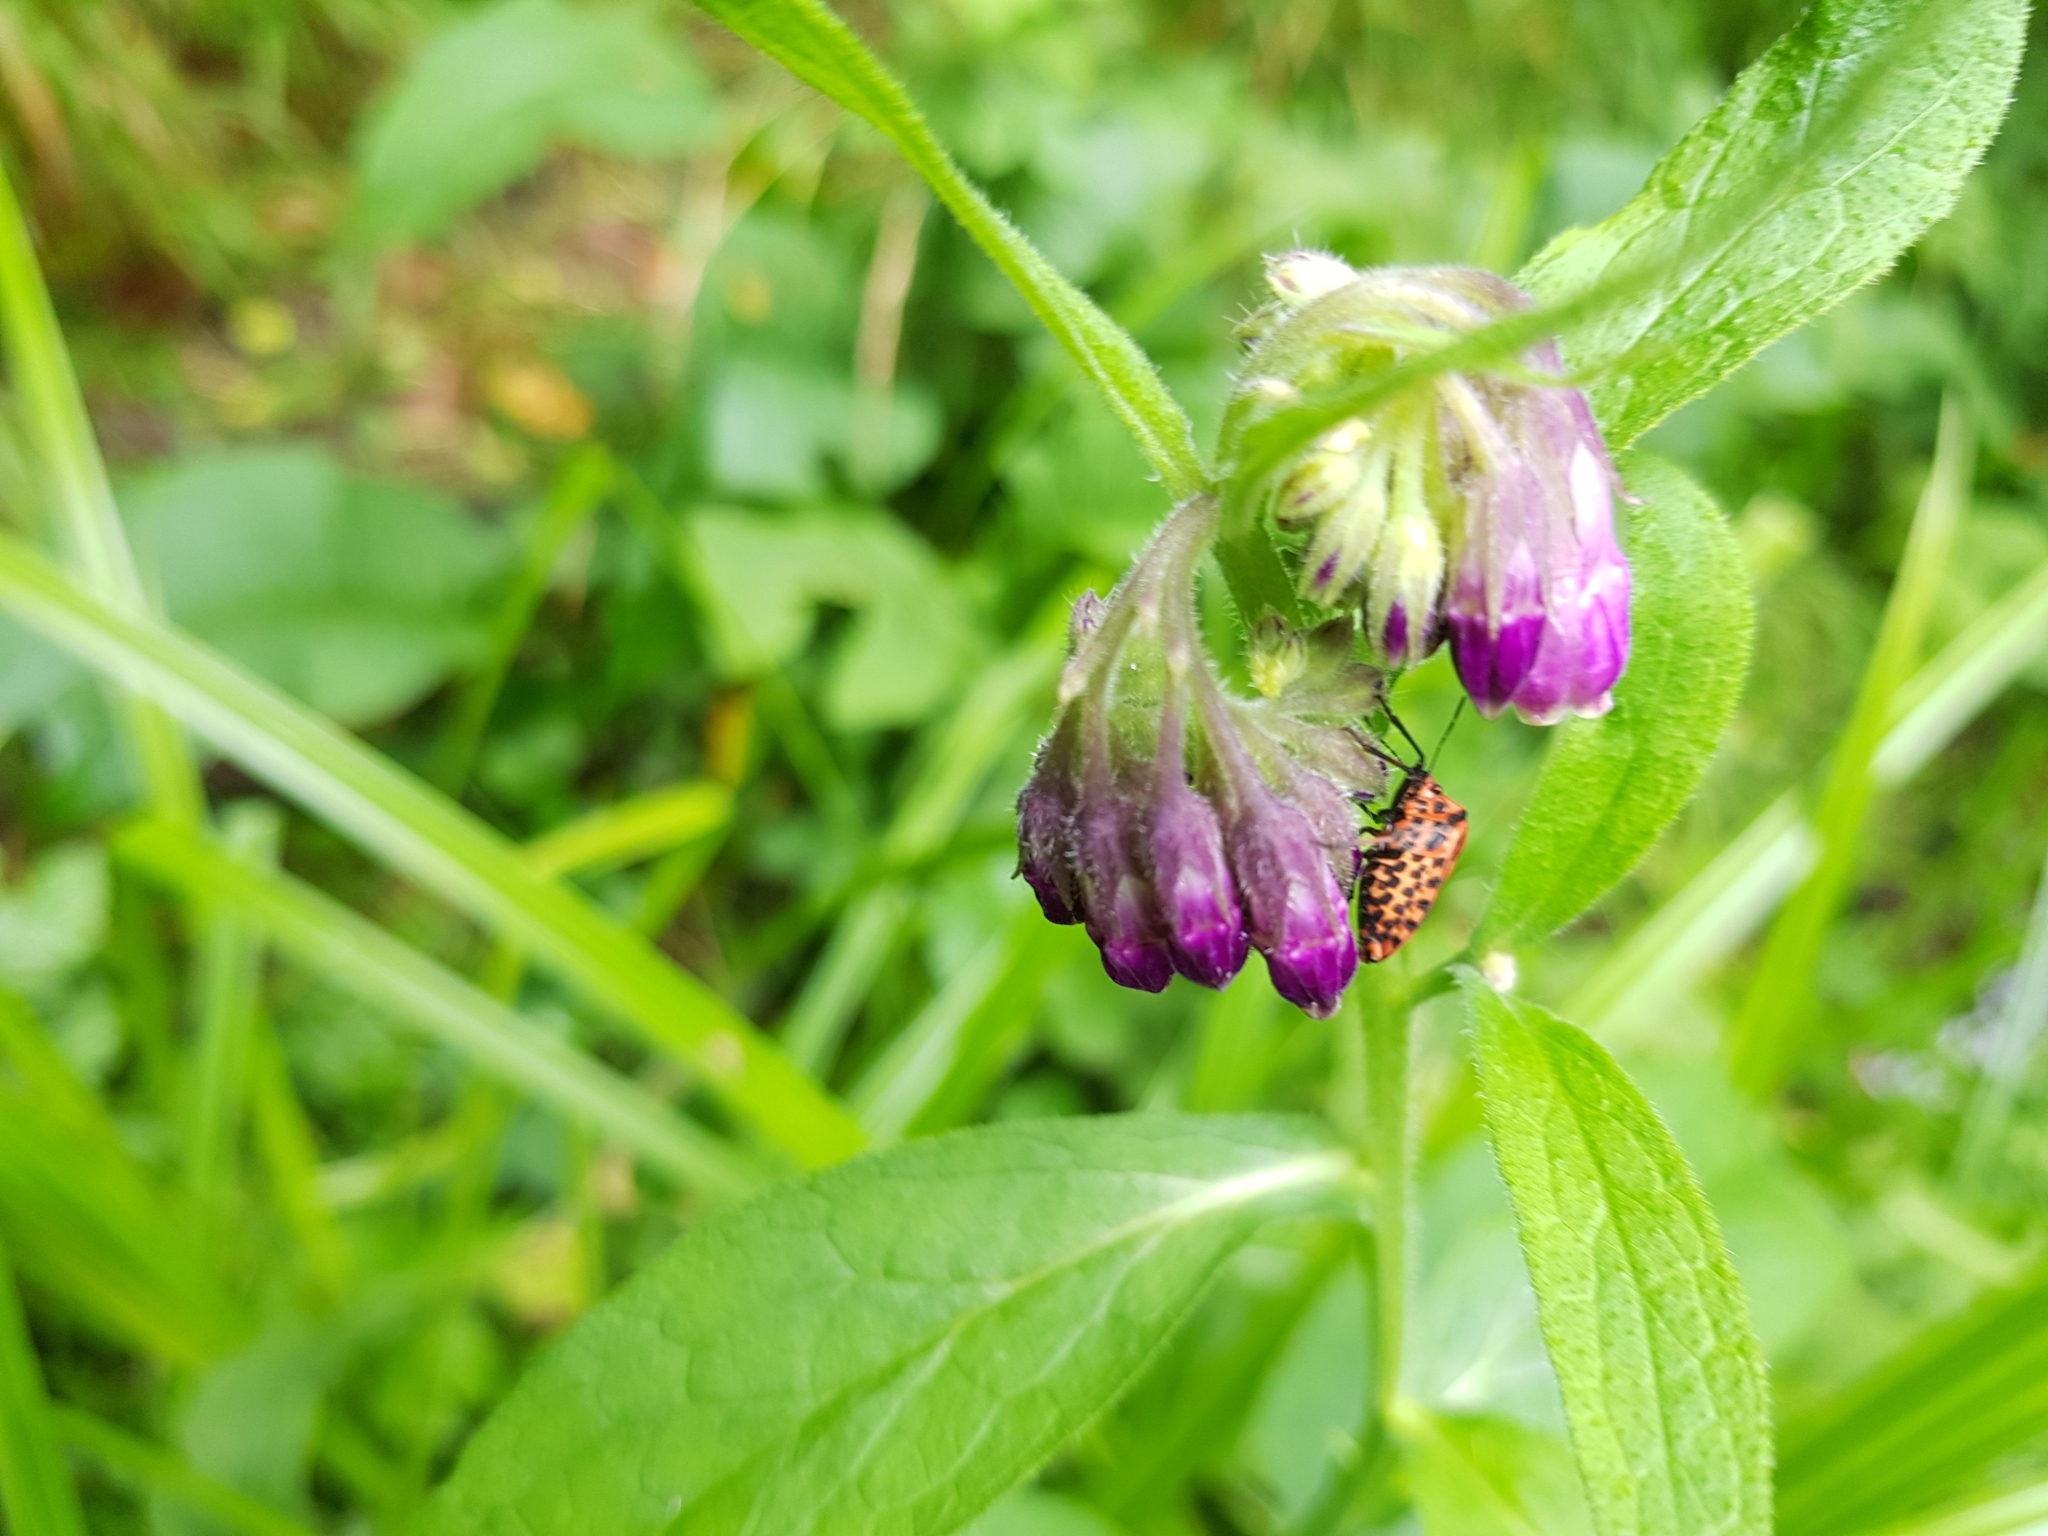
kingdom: Animalia
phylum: Arthropoda
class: Insecta
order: Hemiptera
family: Pentatomidae
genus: Graphosoma
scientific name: Graphosoma italicum
